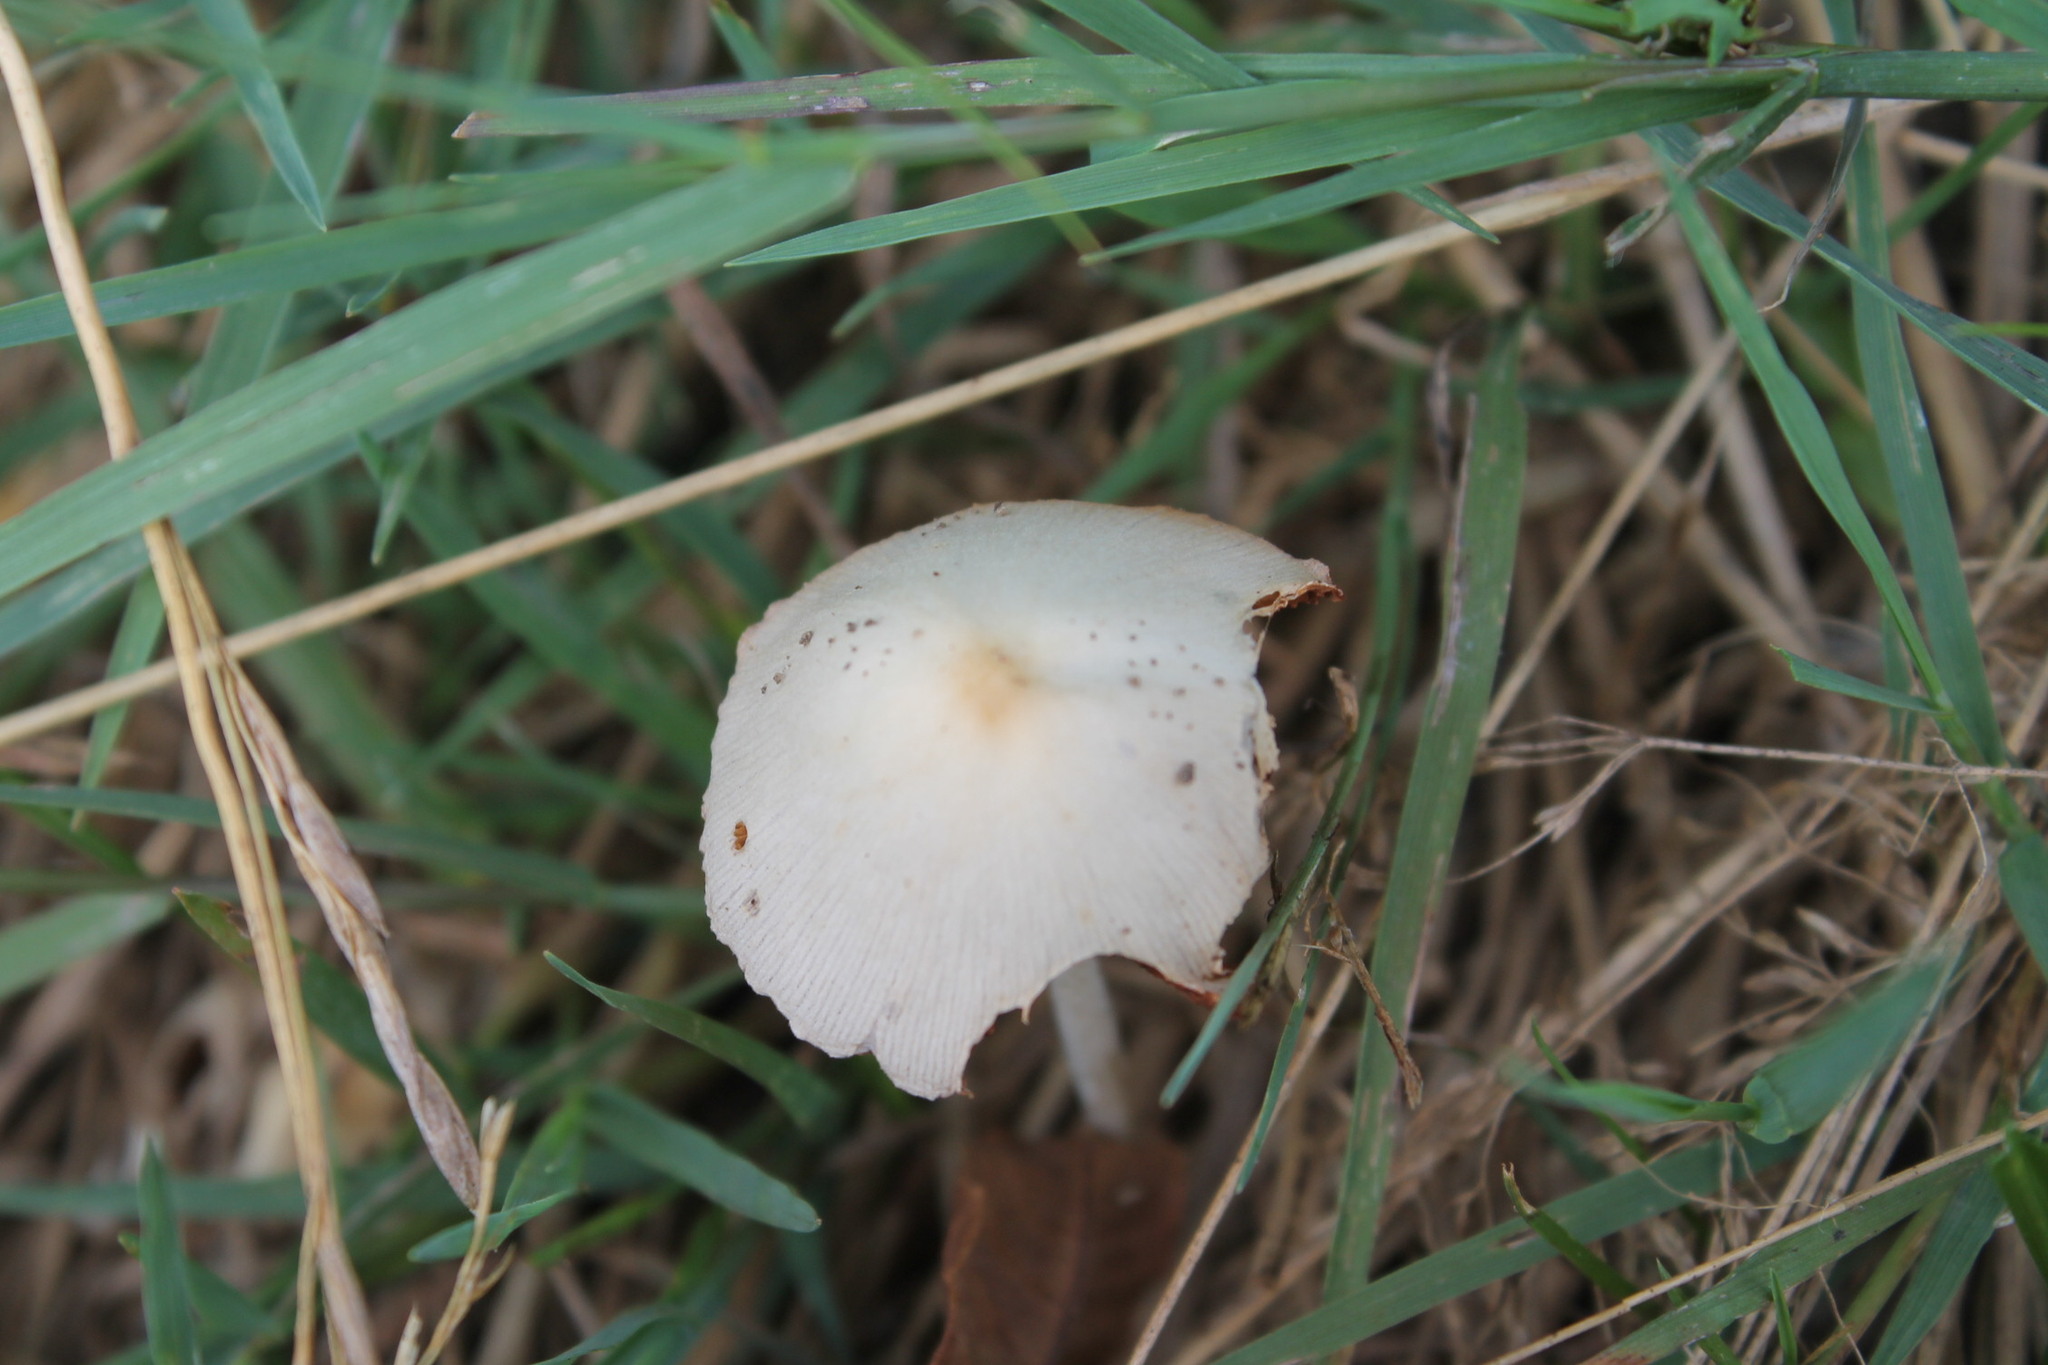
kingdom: Fungi
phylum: Basidiomycota
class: Agaricomycetes
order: Agaricales
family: Bolbitiaceae
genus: Conocybe
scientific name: Conocybe apala
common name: Milky conecap
